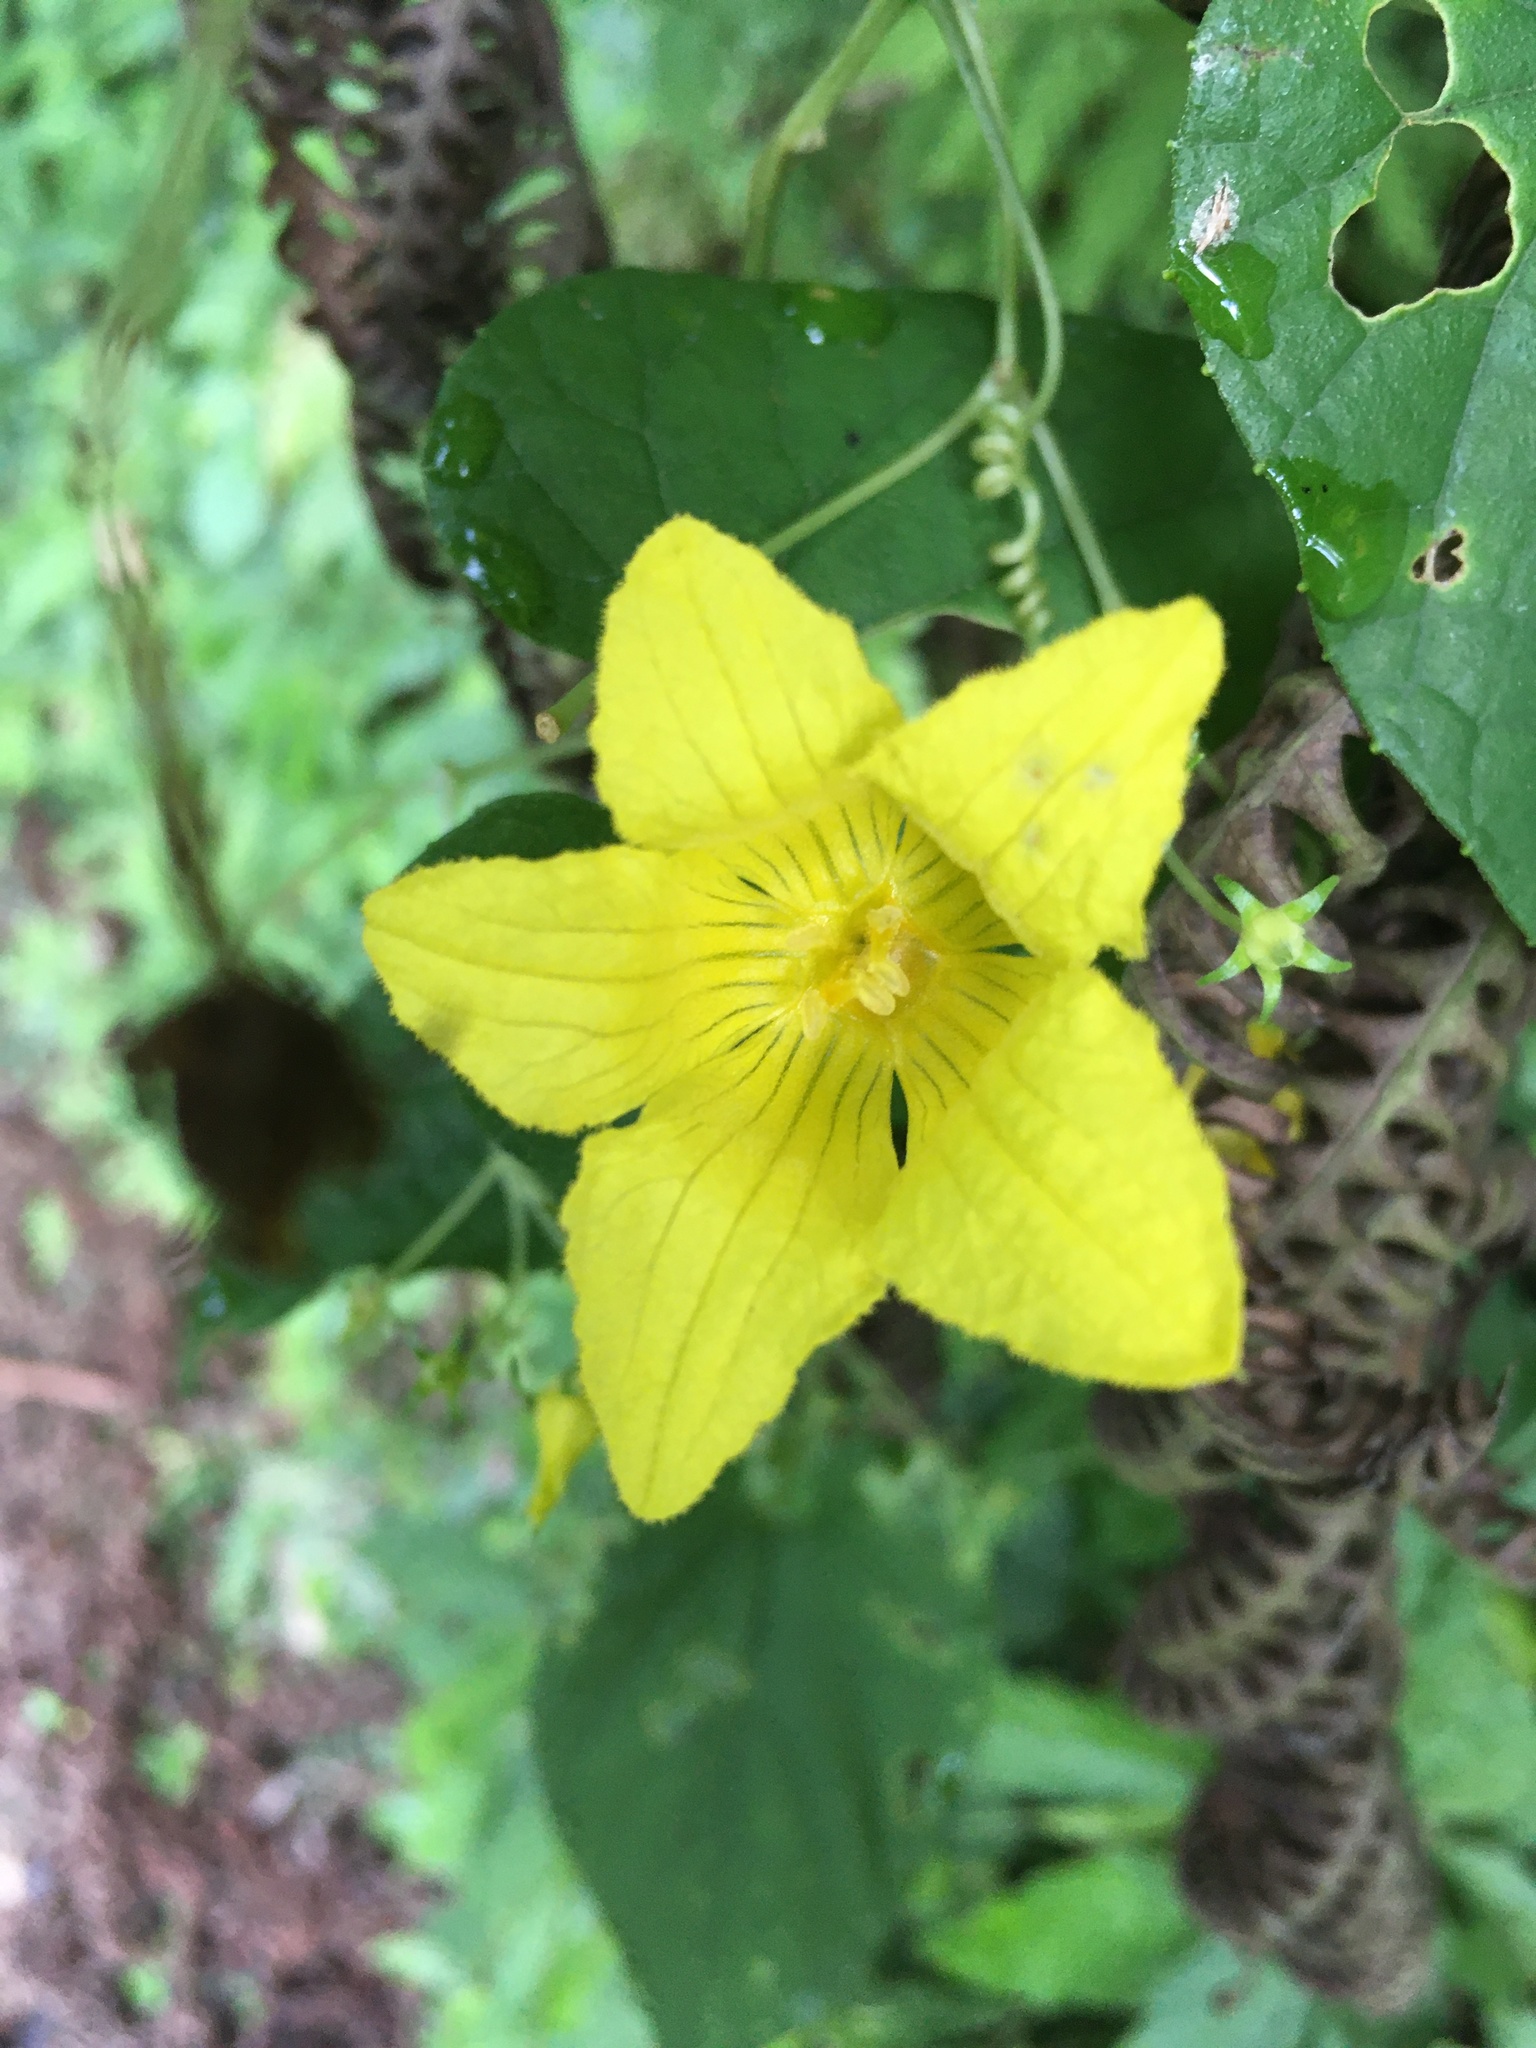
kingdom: Plantae
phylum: Tracheophyta
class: Magnoliopsida
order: Cucurbitales
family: Cucurbitaceae
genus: Thladiantha
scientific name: Thladiantha punctata
